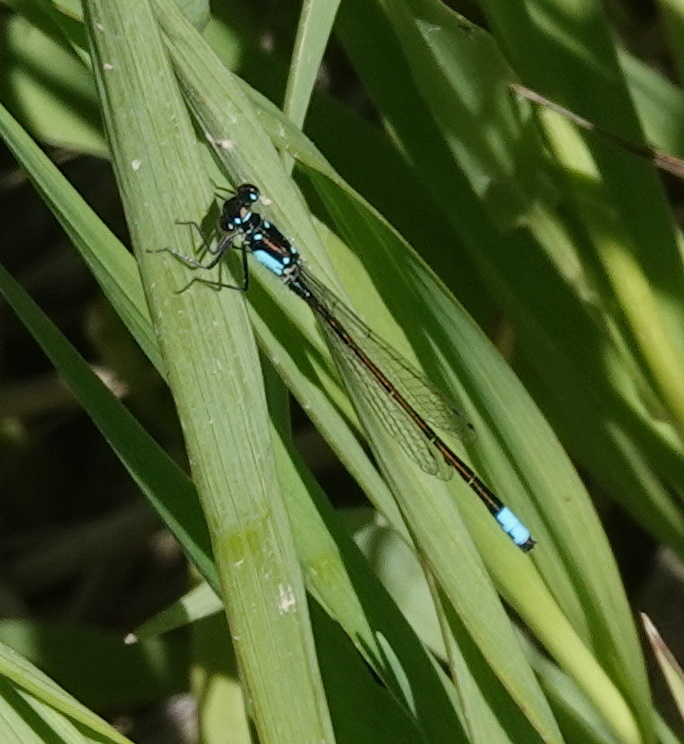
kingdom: Animalia
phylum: Arthropoda
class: Insecta
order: Odonata
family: Coenagrionidae
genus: Ischnura
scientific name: Ischnura cervula
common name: Pacific forktail
